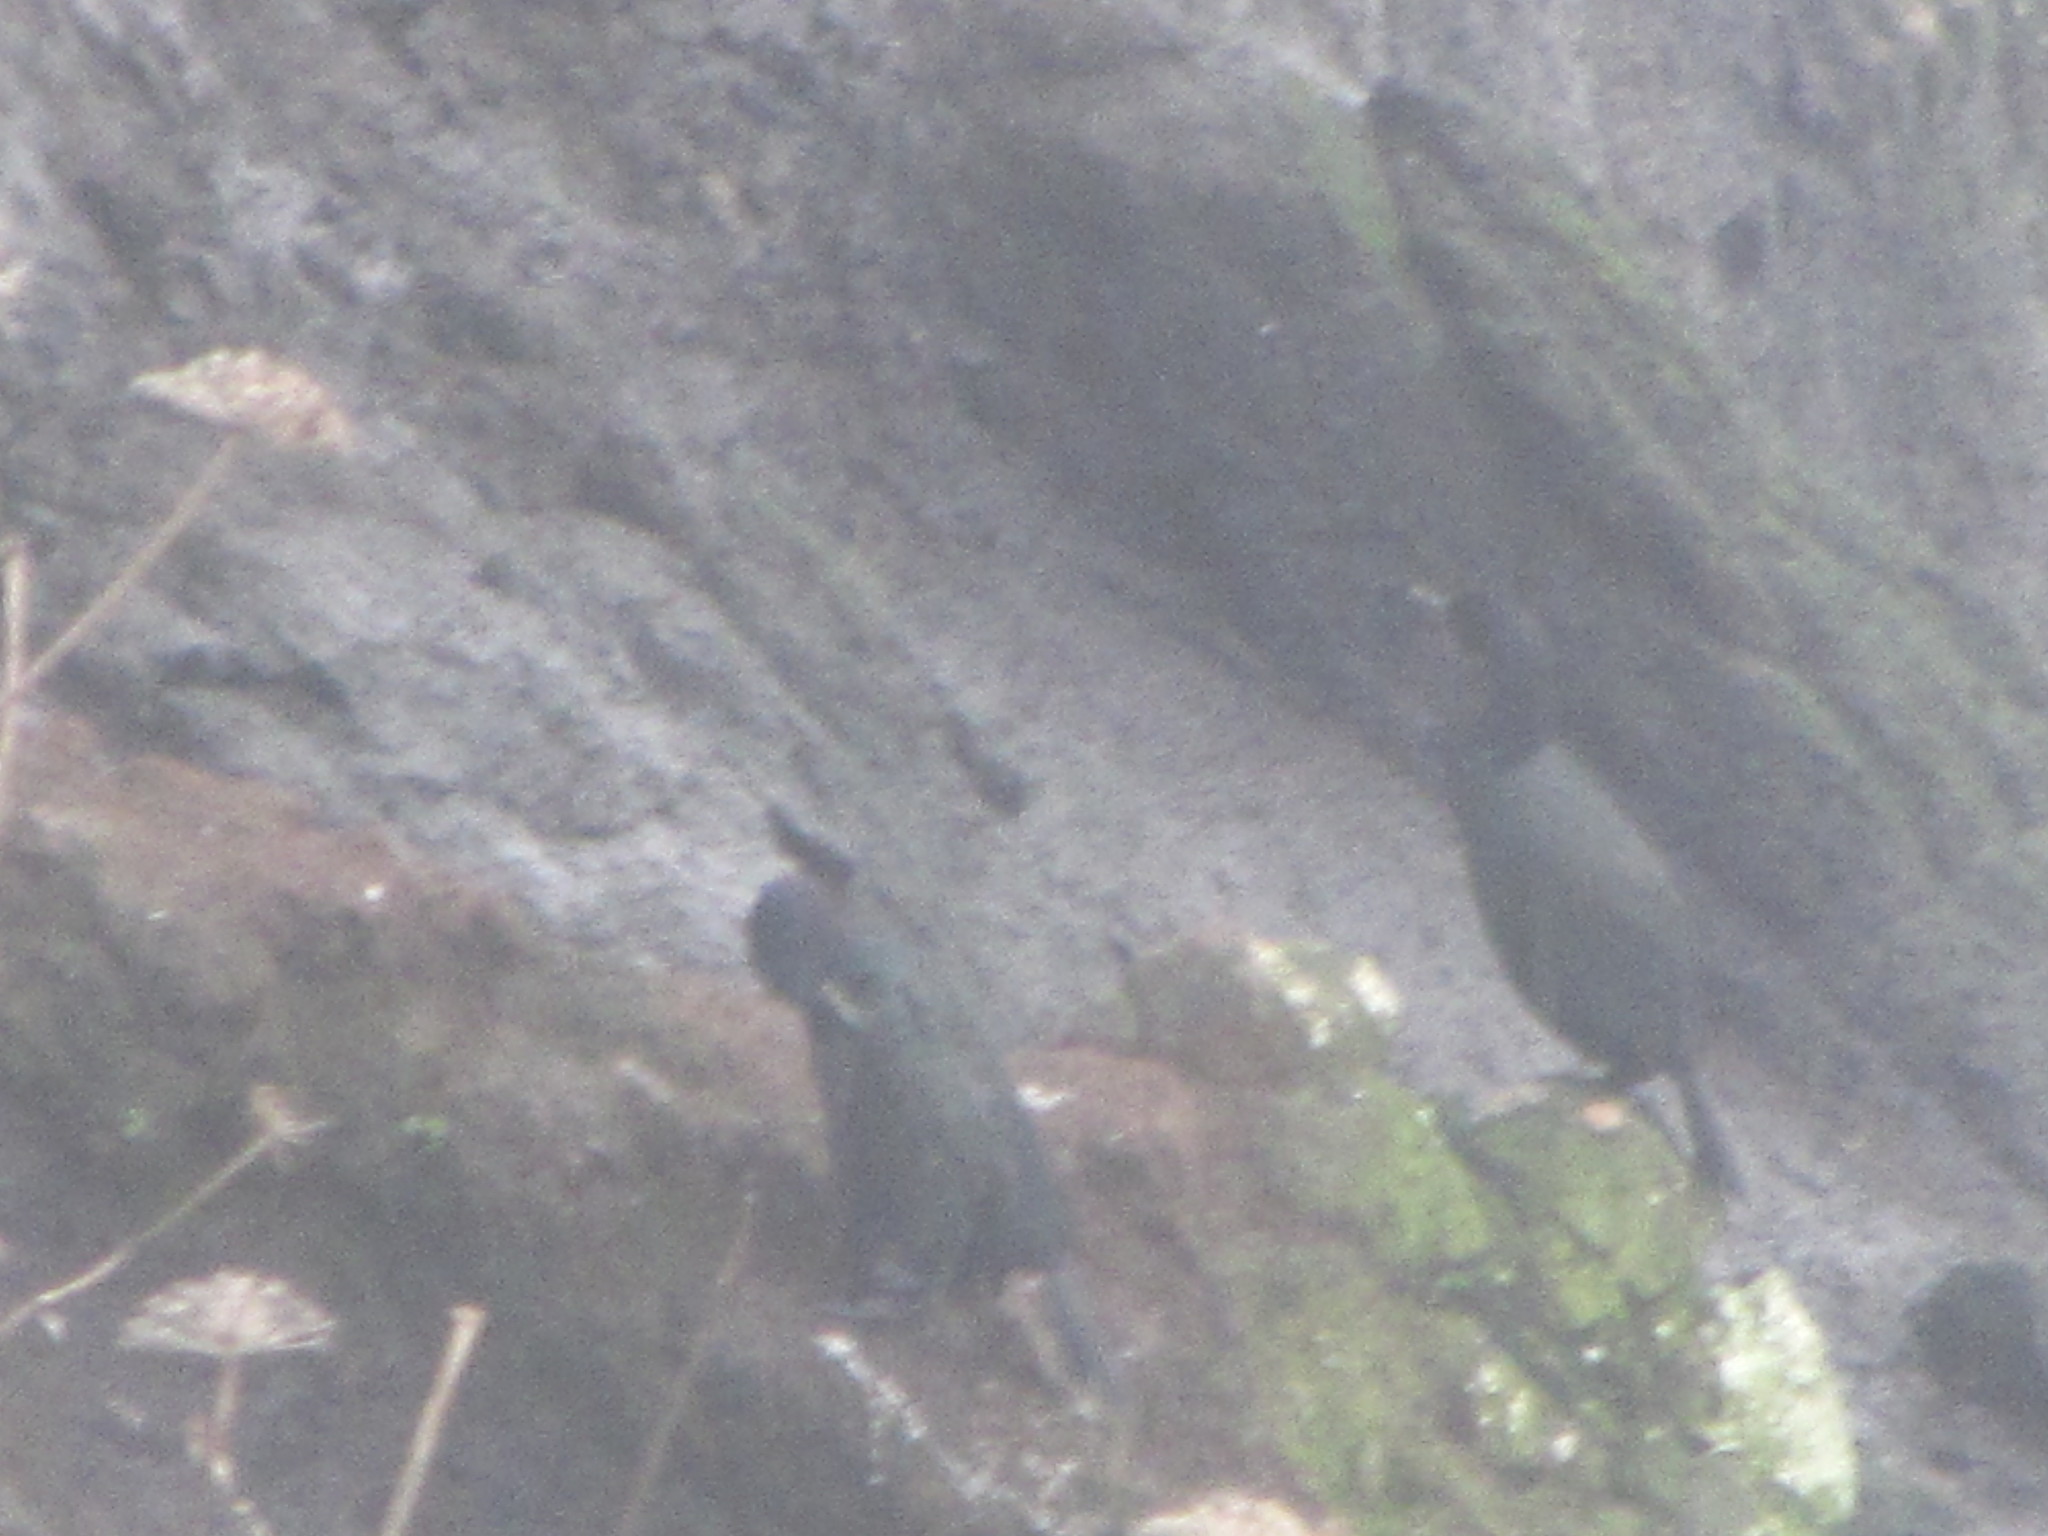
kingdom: Animalia
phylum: Chordata
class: Aves
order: Suliformes
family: Phalacrocoracidae
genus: Phalacrocorax
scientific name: Phalacrocorax pelagicus
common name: Pelagic cormorant
